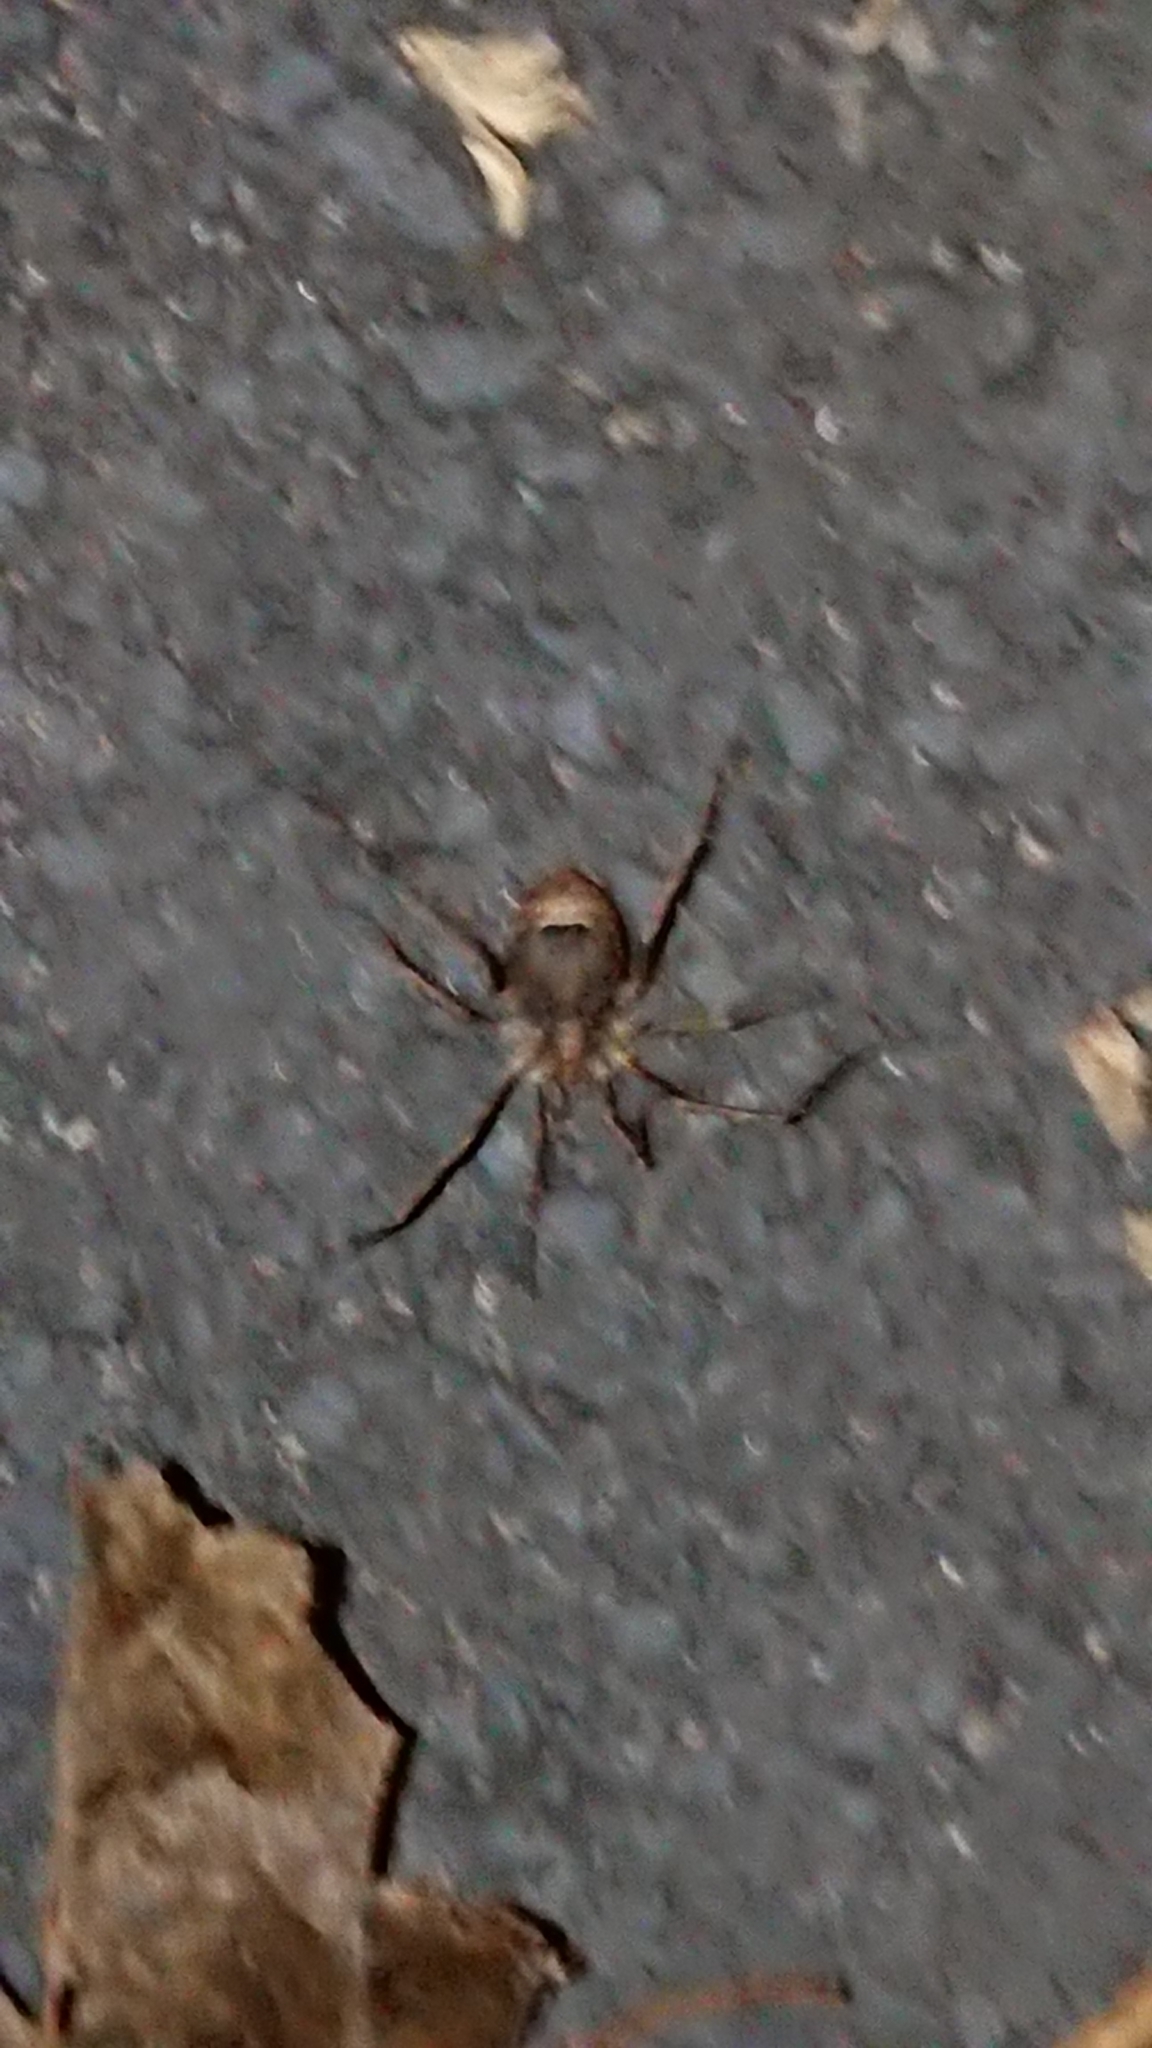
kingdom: Animalia
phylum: Arthropoda
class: Arachnida
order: Opiliones
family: Phalangiidae
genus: Odiellus
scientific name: Odiellus spinosus
